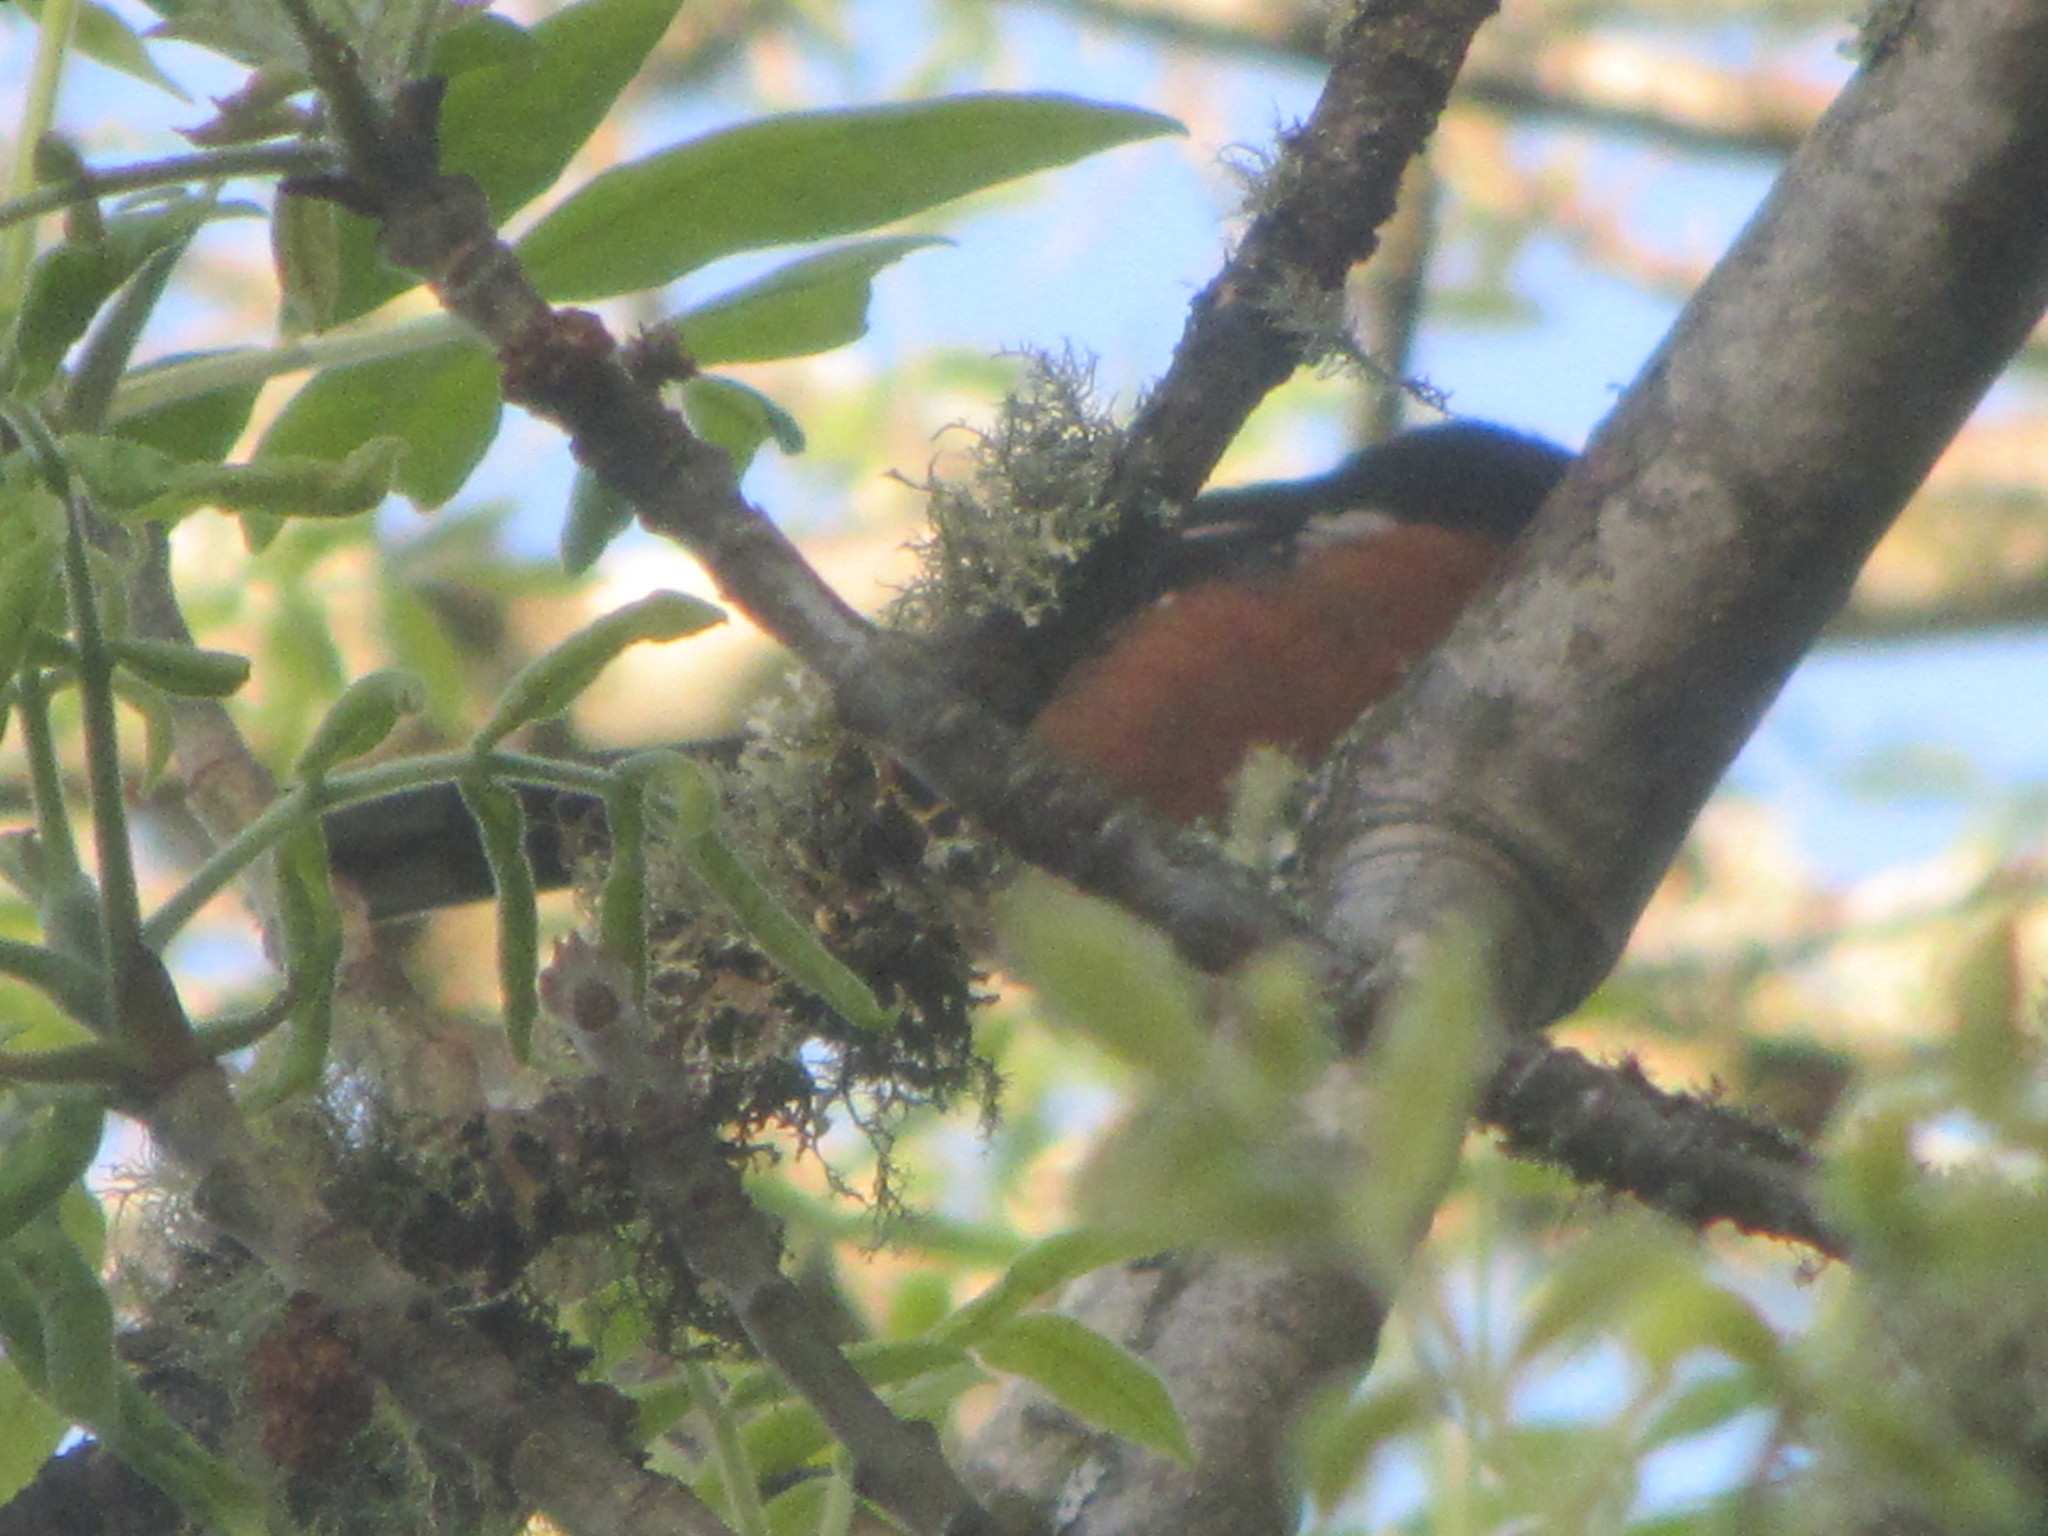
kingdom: Animalia
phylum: Chordata
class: Aves
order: Passeriformes
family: Passerellidae
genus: Pipilo
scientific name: Pipilo maculatus
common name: Spotted towhee
